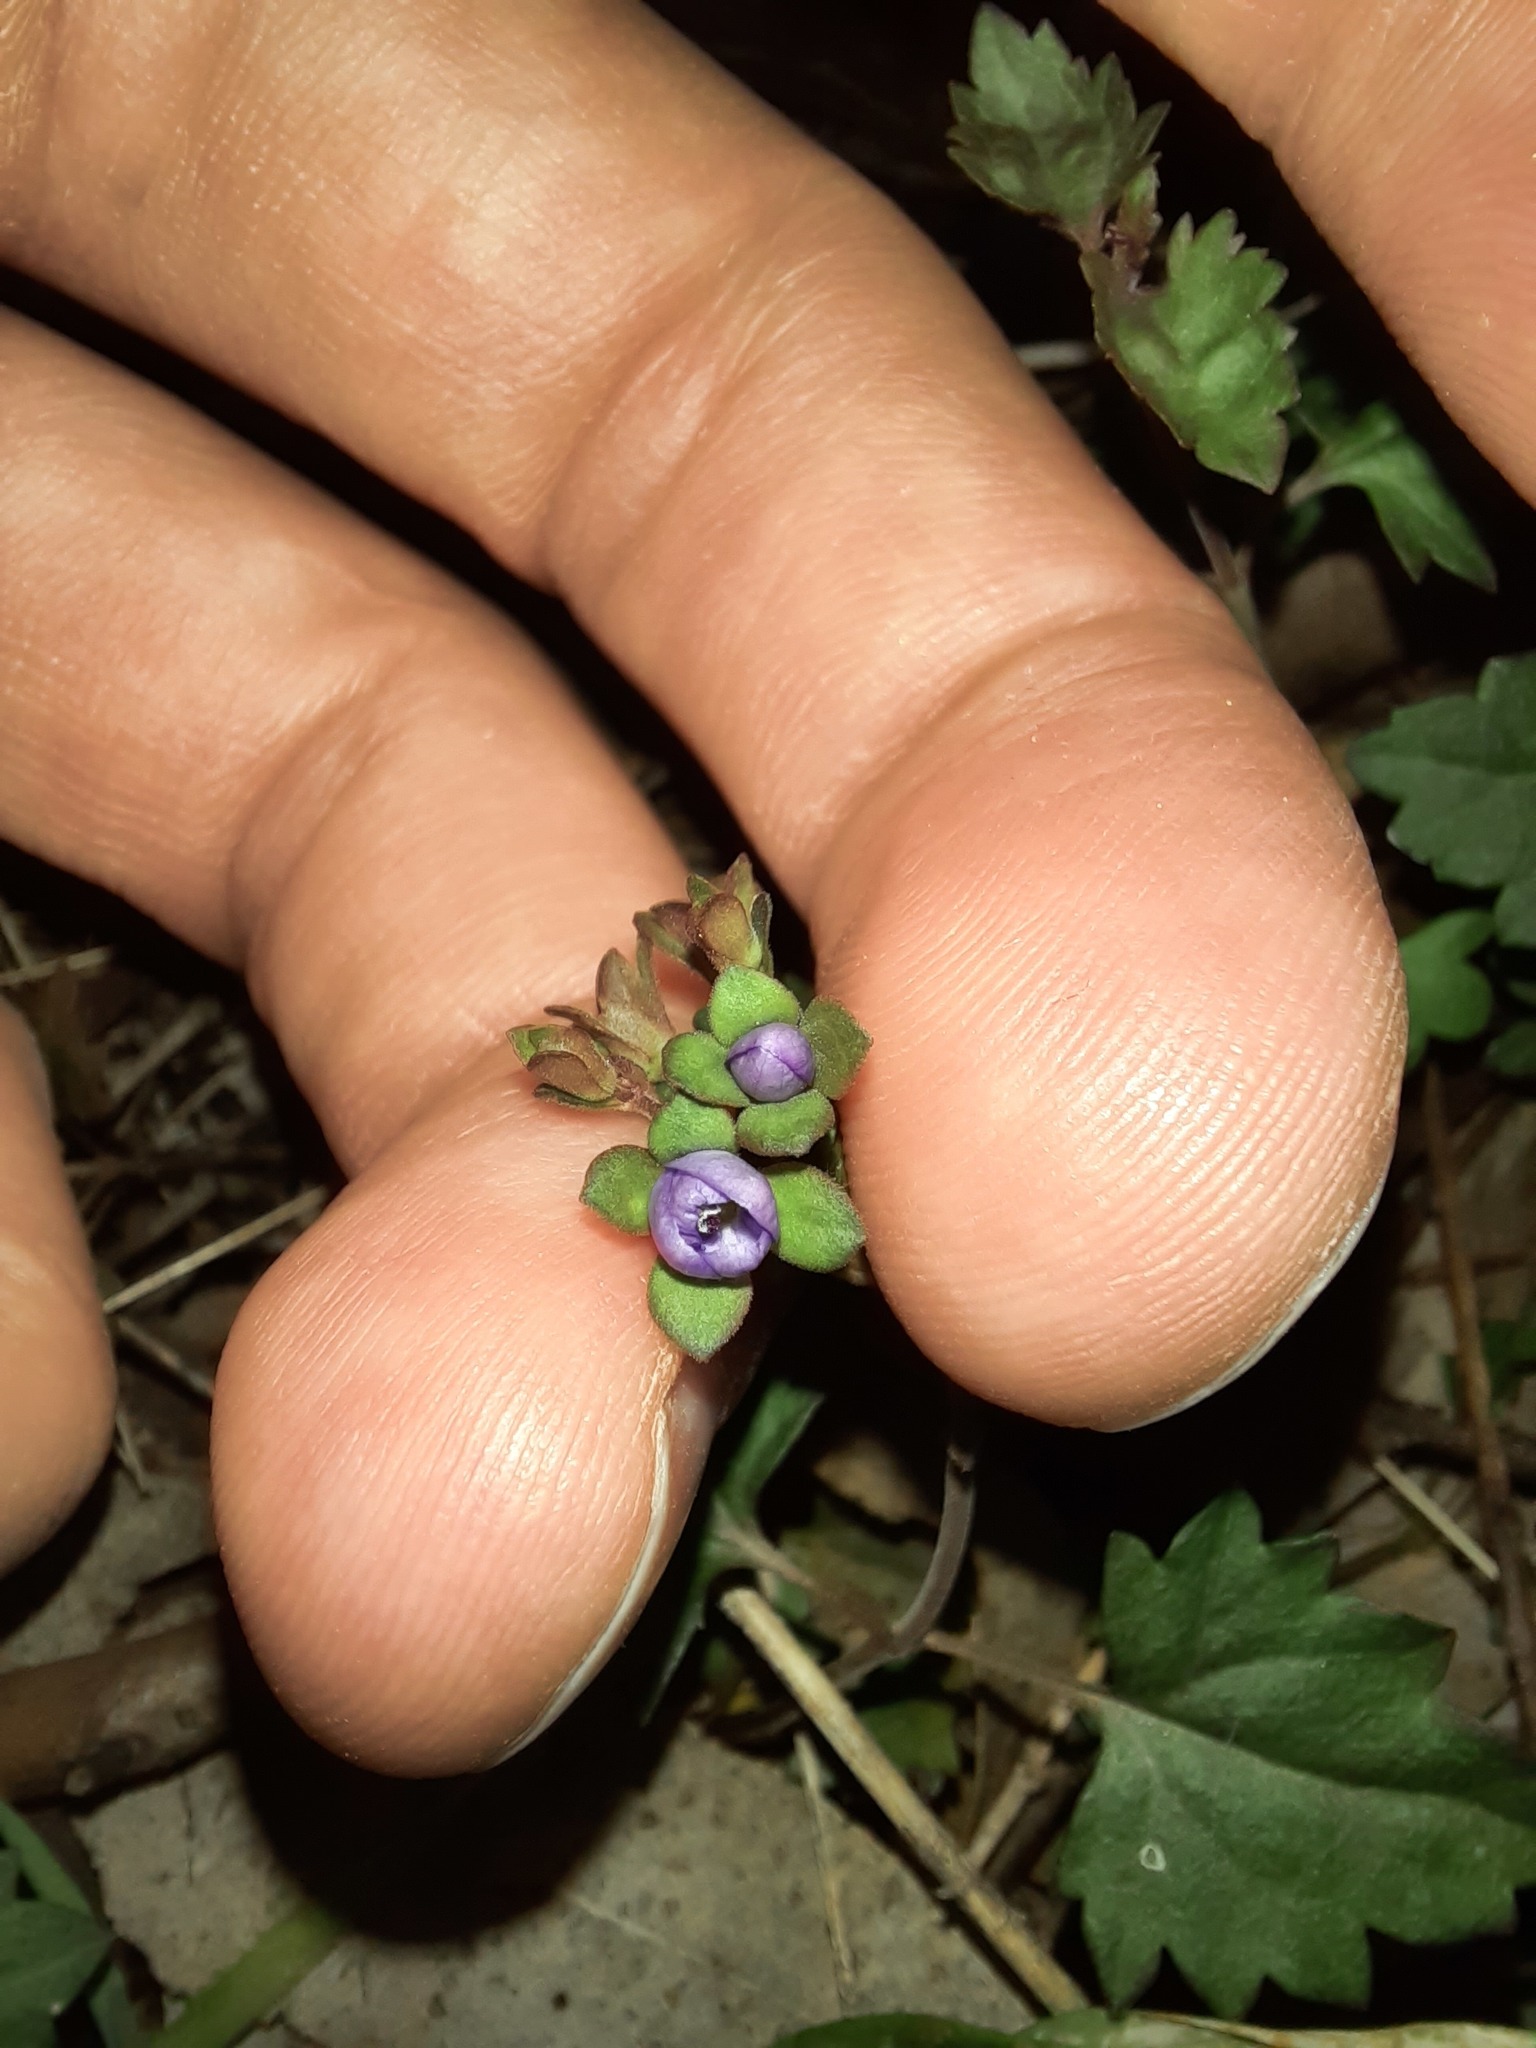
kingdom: Plantae
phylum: Tracheophyta
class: Magnoliopsida
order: Lamiales
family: Plantaginaceae
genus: Veronica
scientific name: Veronica plebeia
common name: Speedwell
